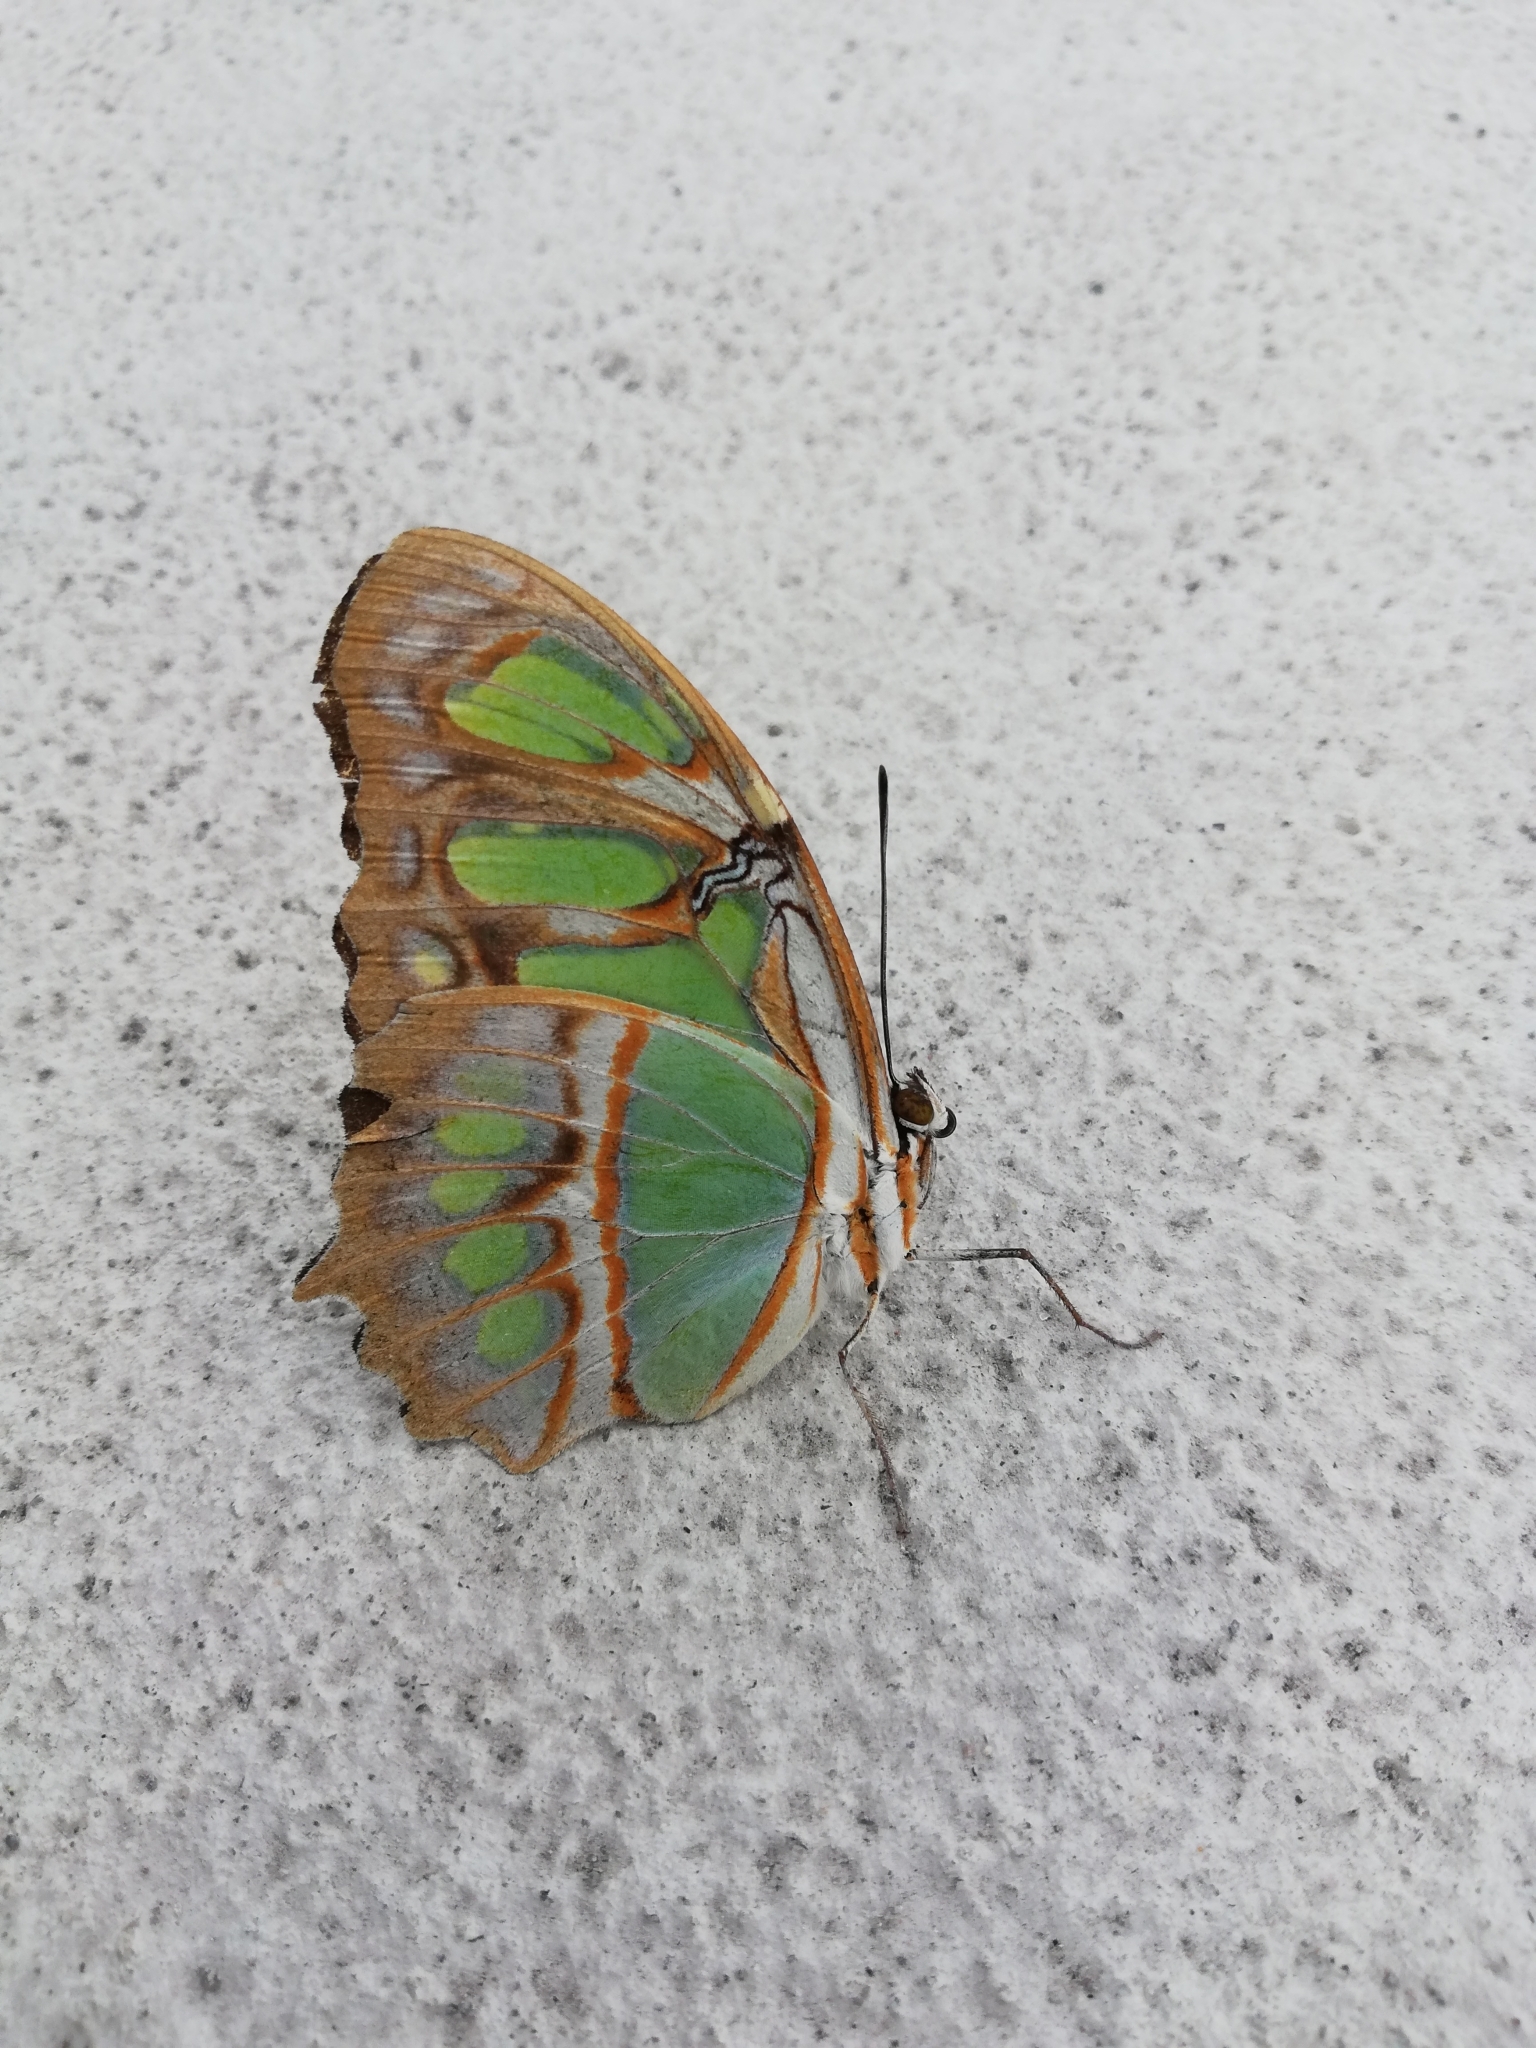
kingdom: Animalia
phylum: Arthropoda
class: Insecta
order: Lepidoptera
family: Nymphalidae
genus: Siproeta
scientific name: Siproeta stelenes
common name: Malachite
